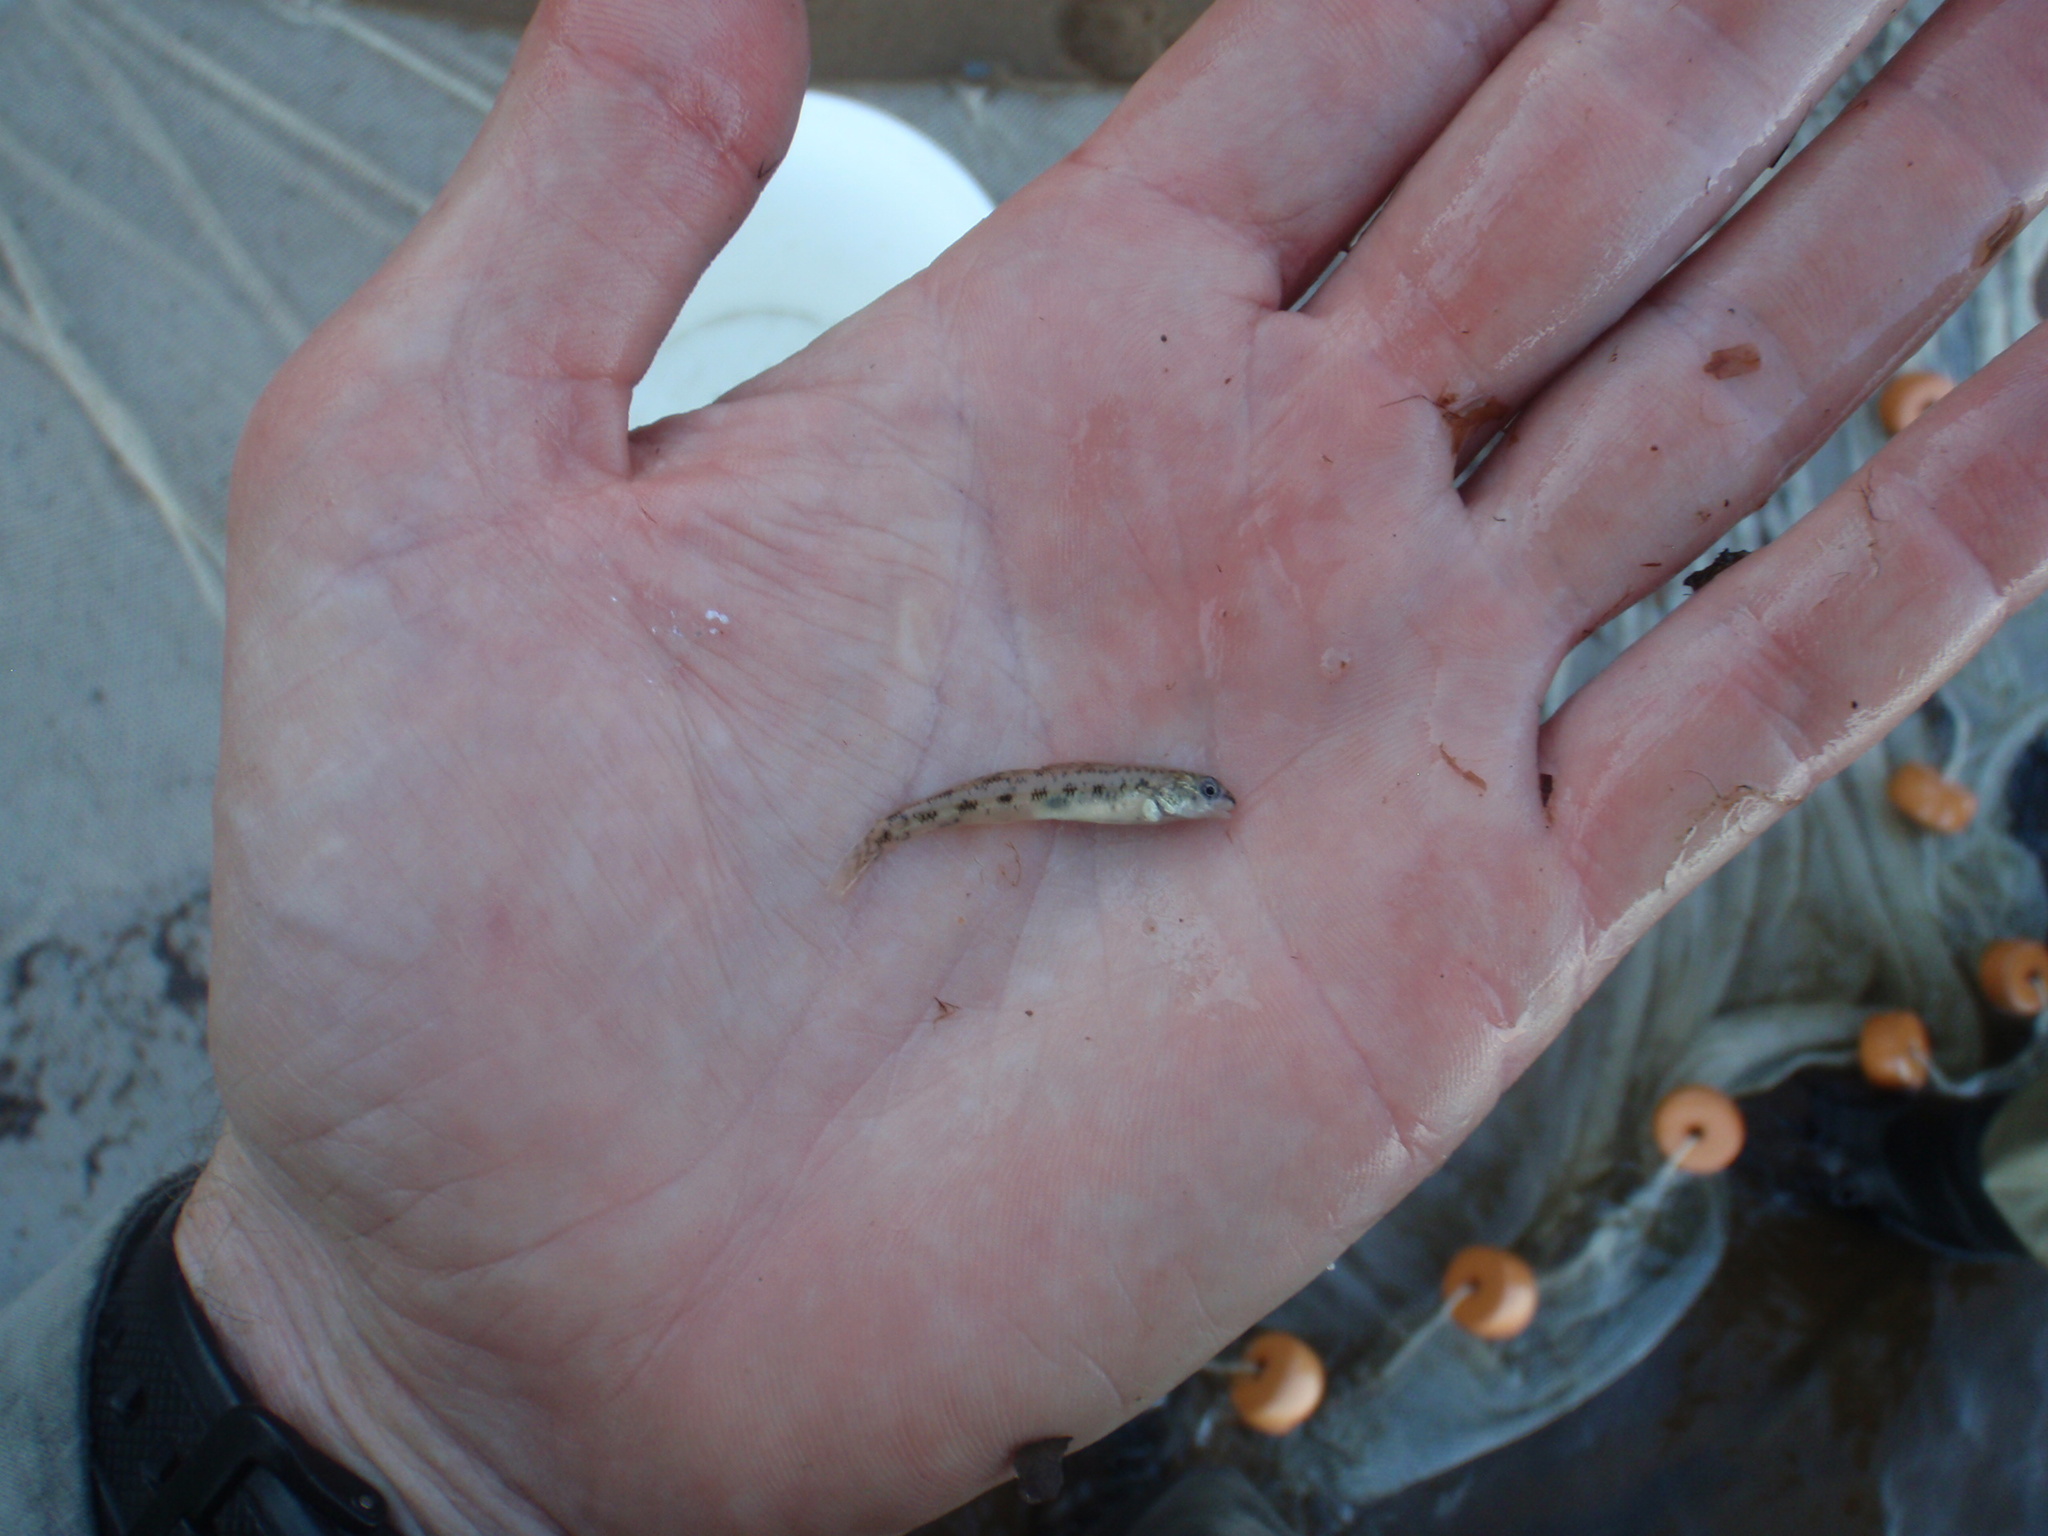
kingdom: Animalia
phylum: Chordata
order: Perciformes
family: Percidae
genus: Etheostoma
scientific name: Etheostoma nigrum
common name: Johnny darter
